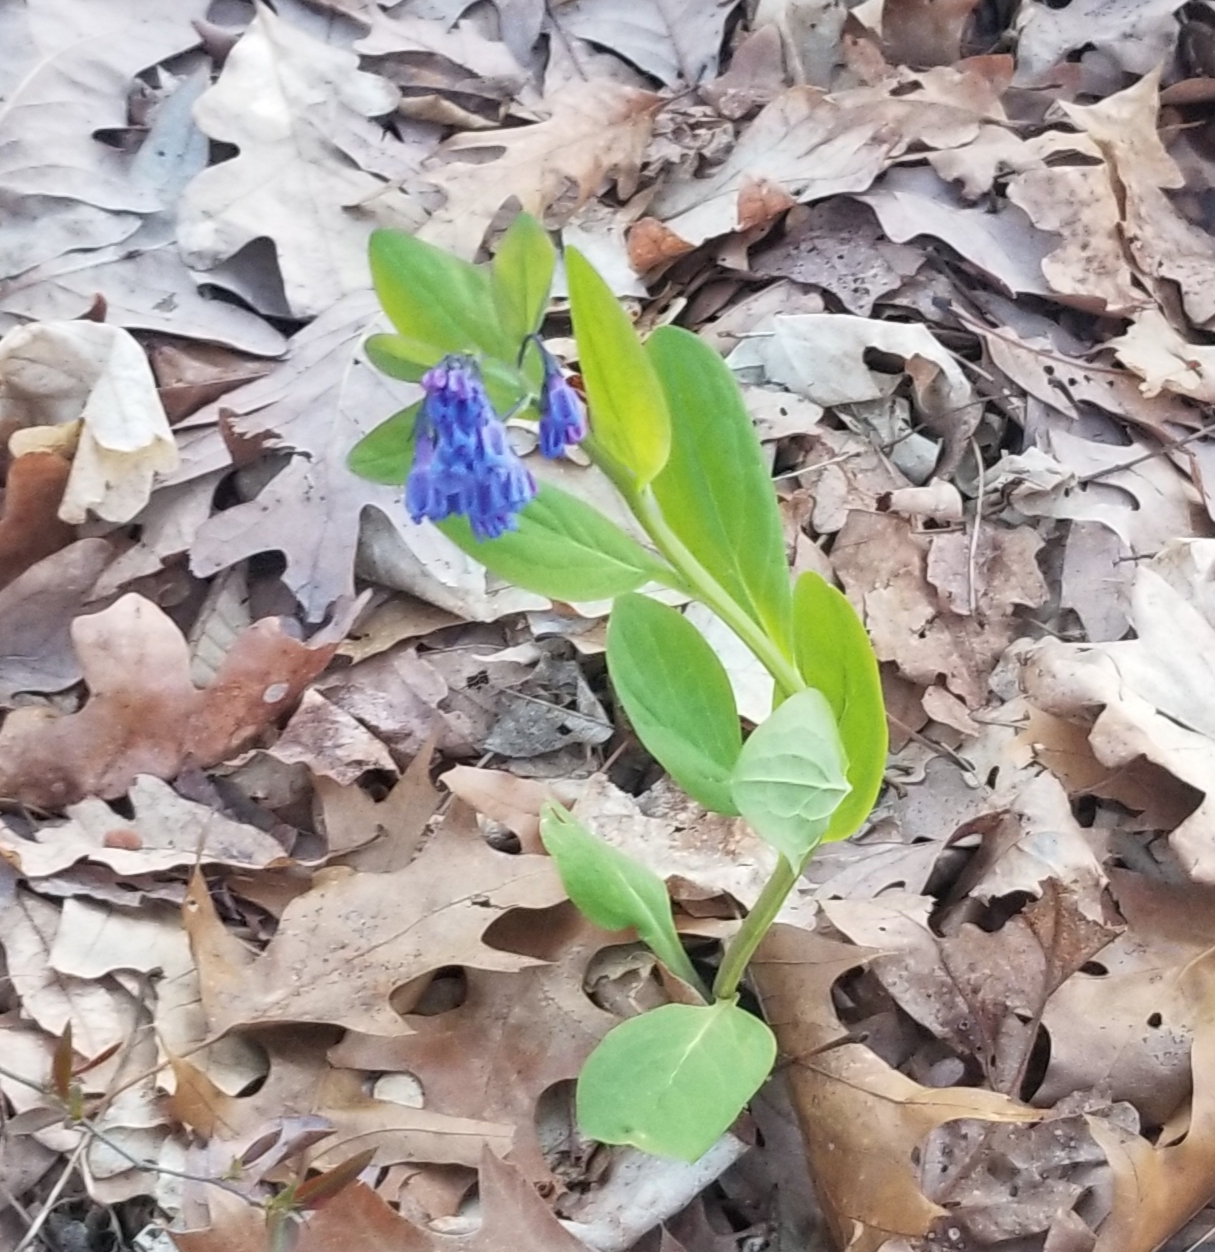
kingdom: Plantae
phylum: Tracheophyta
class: Magnoliopsida
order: Boraginales
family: Boraginaceae
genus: Mertensia
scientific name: Mertensia virginica
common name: Virginia bluebells
